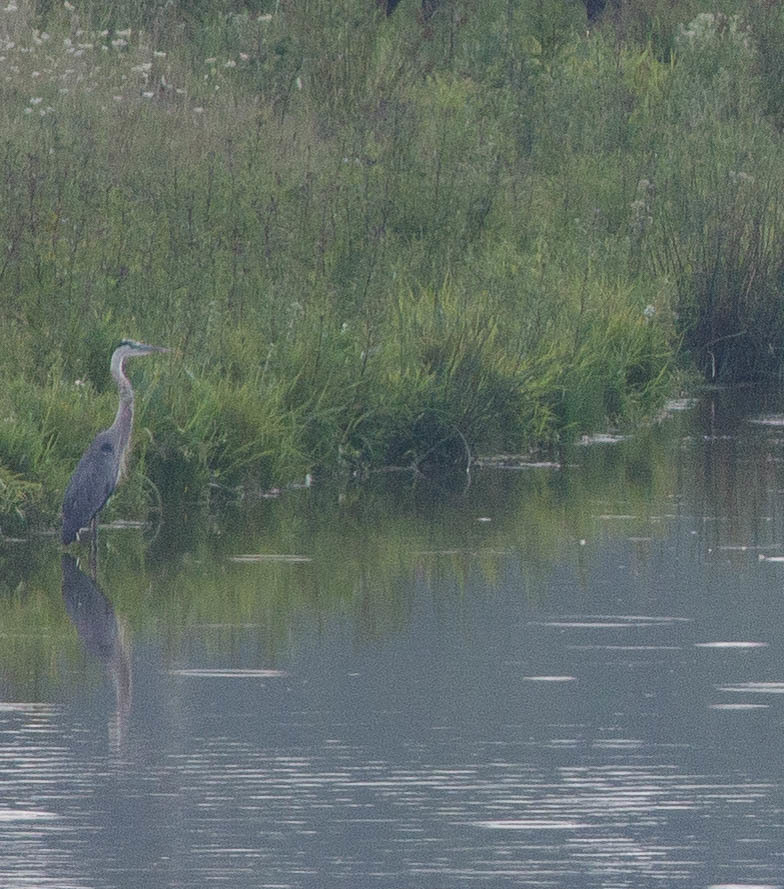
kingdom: Animalia
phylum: Chordata
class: Aves
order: Pelecaniformes
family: Ardeidae
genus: Ardea
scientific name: Ardea herodias
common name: Great blue heron
